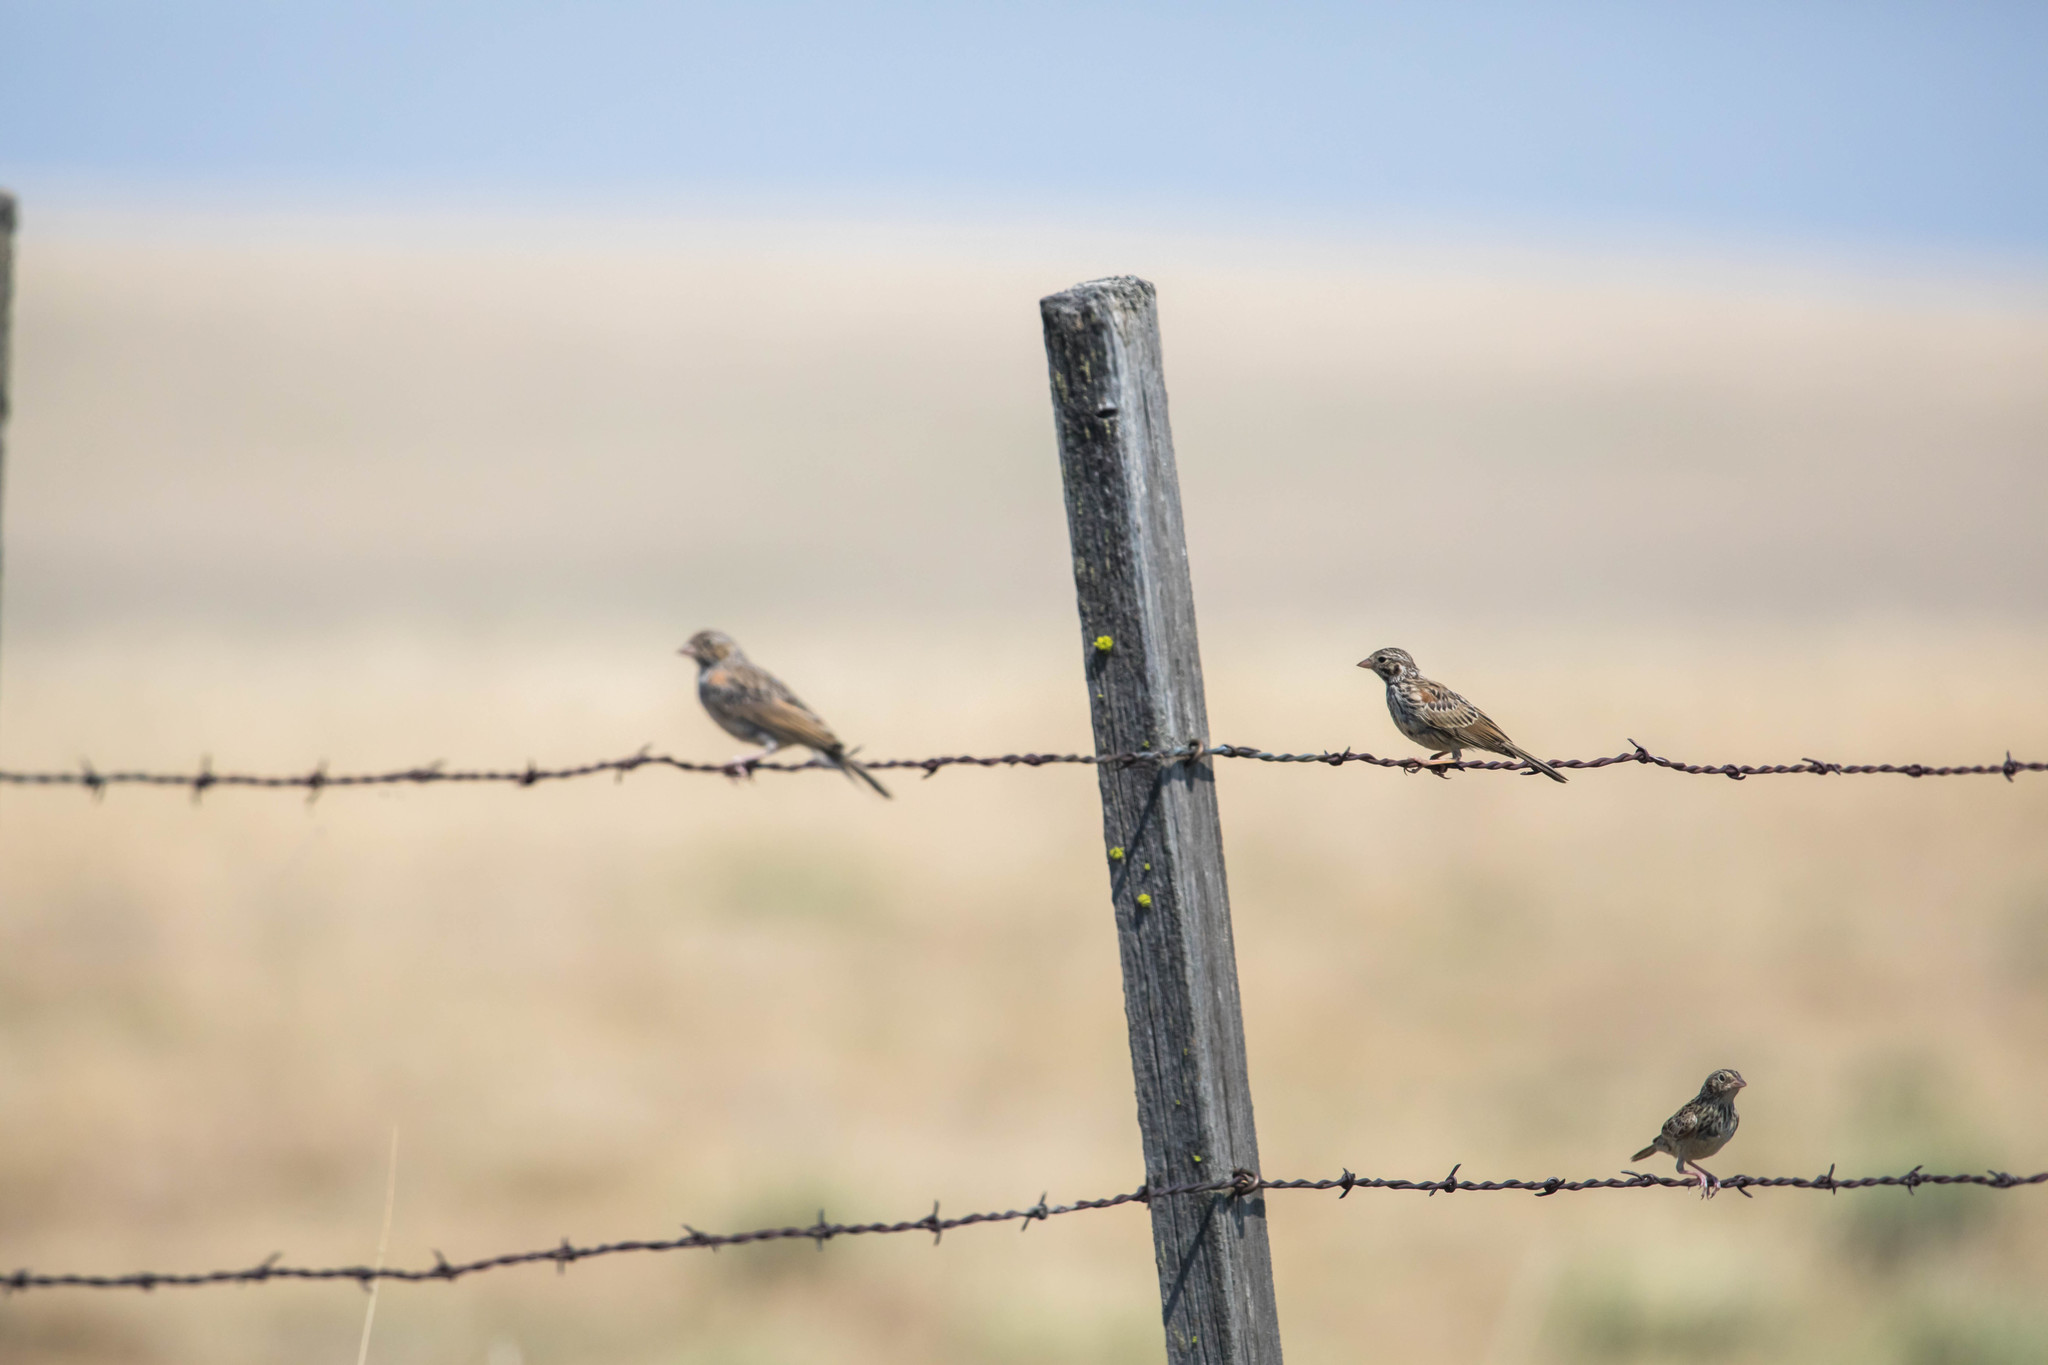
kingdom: Animalia
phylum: Chordata
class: Aves
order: Passeriformes
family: Passerellidae
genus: Pooecetes
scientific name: Pooecetes gramineus
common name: Vesper sparrow
